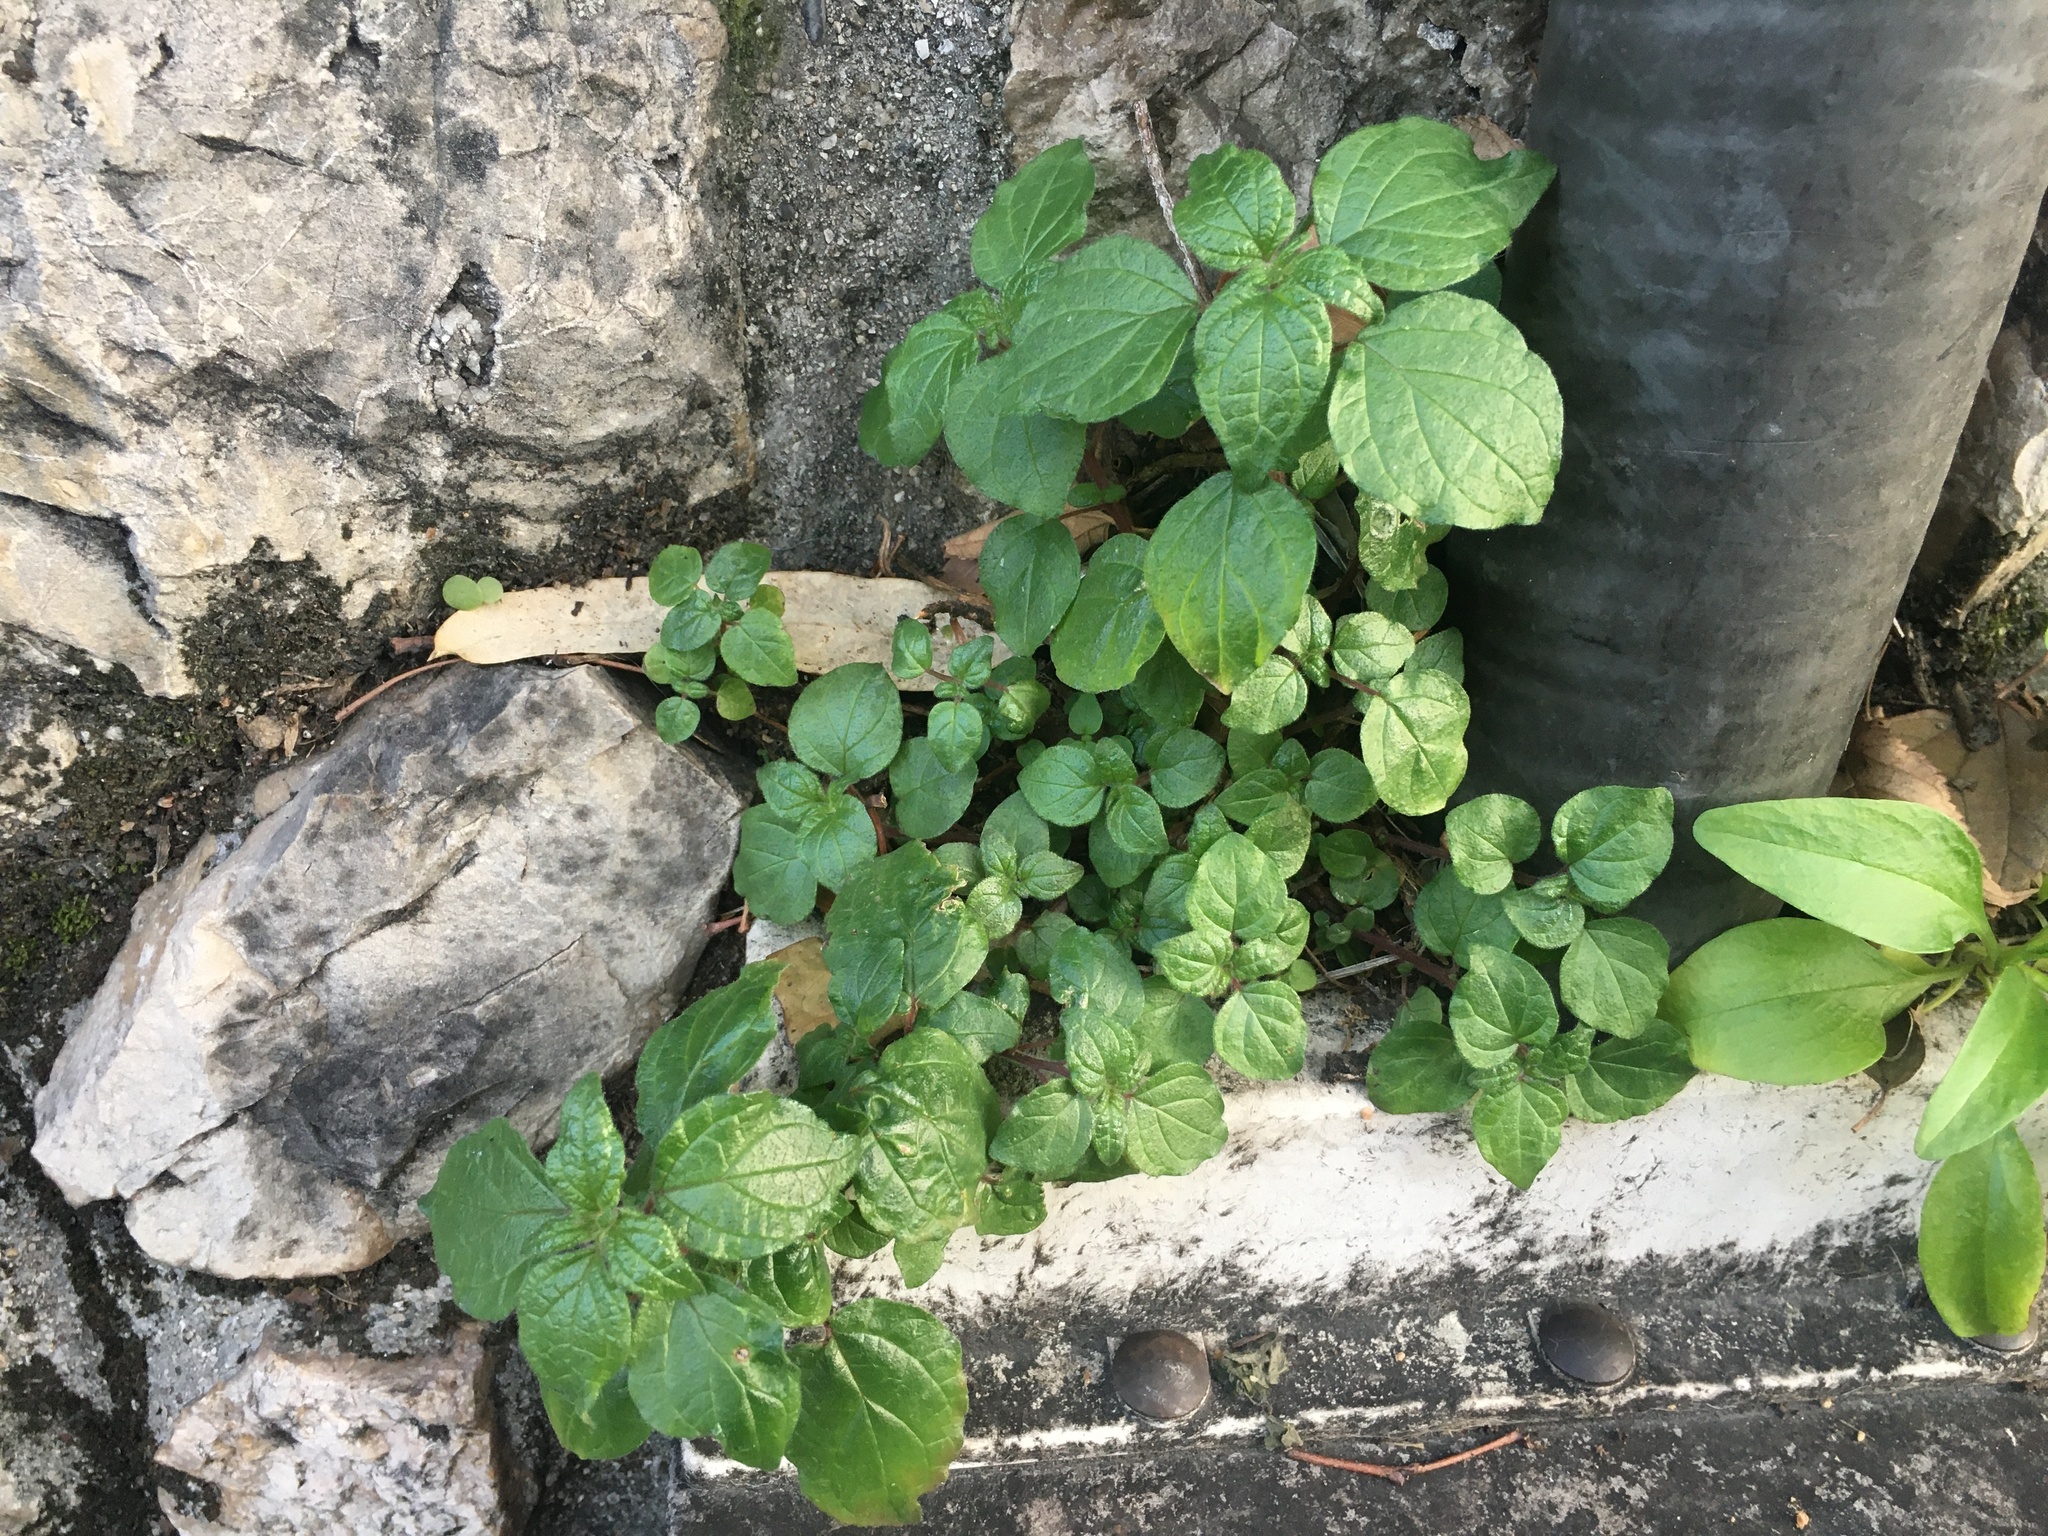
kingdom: Plantae
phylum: Tracheophyta
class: Magnoliopsida
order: Rosales
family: Urticaceae
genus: Parietaria
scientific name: Parietaria judaica
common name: Pellitory-of-the-wall
